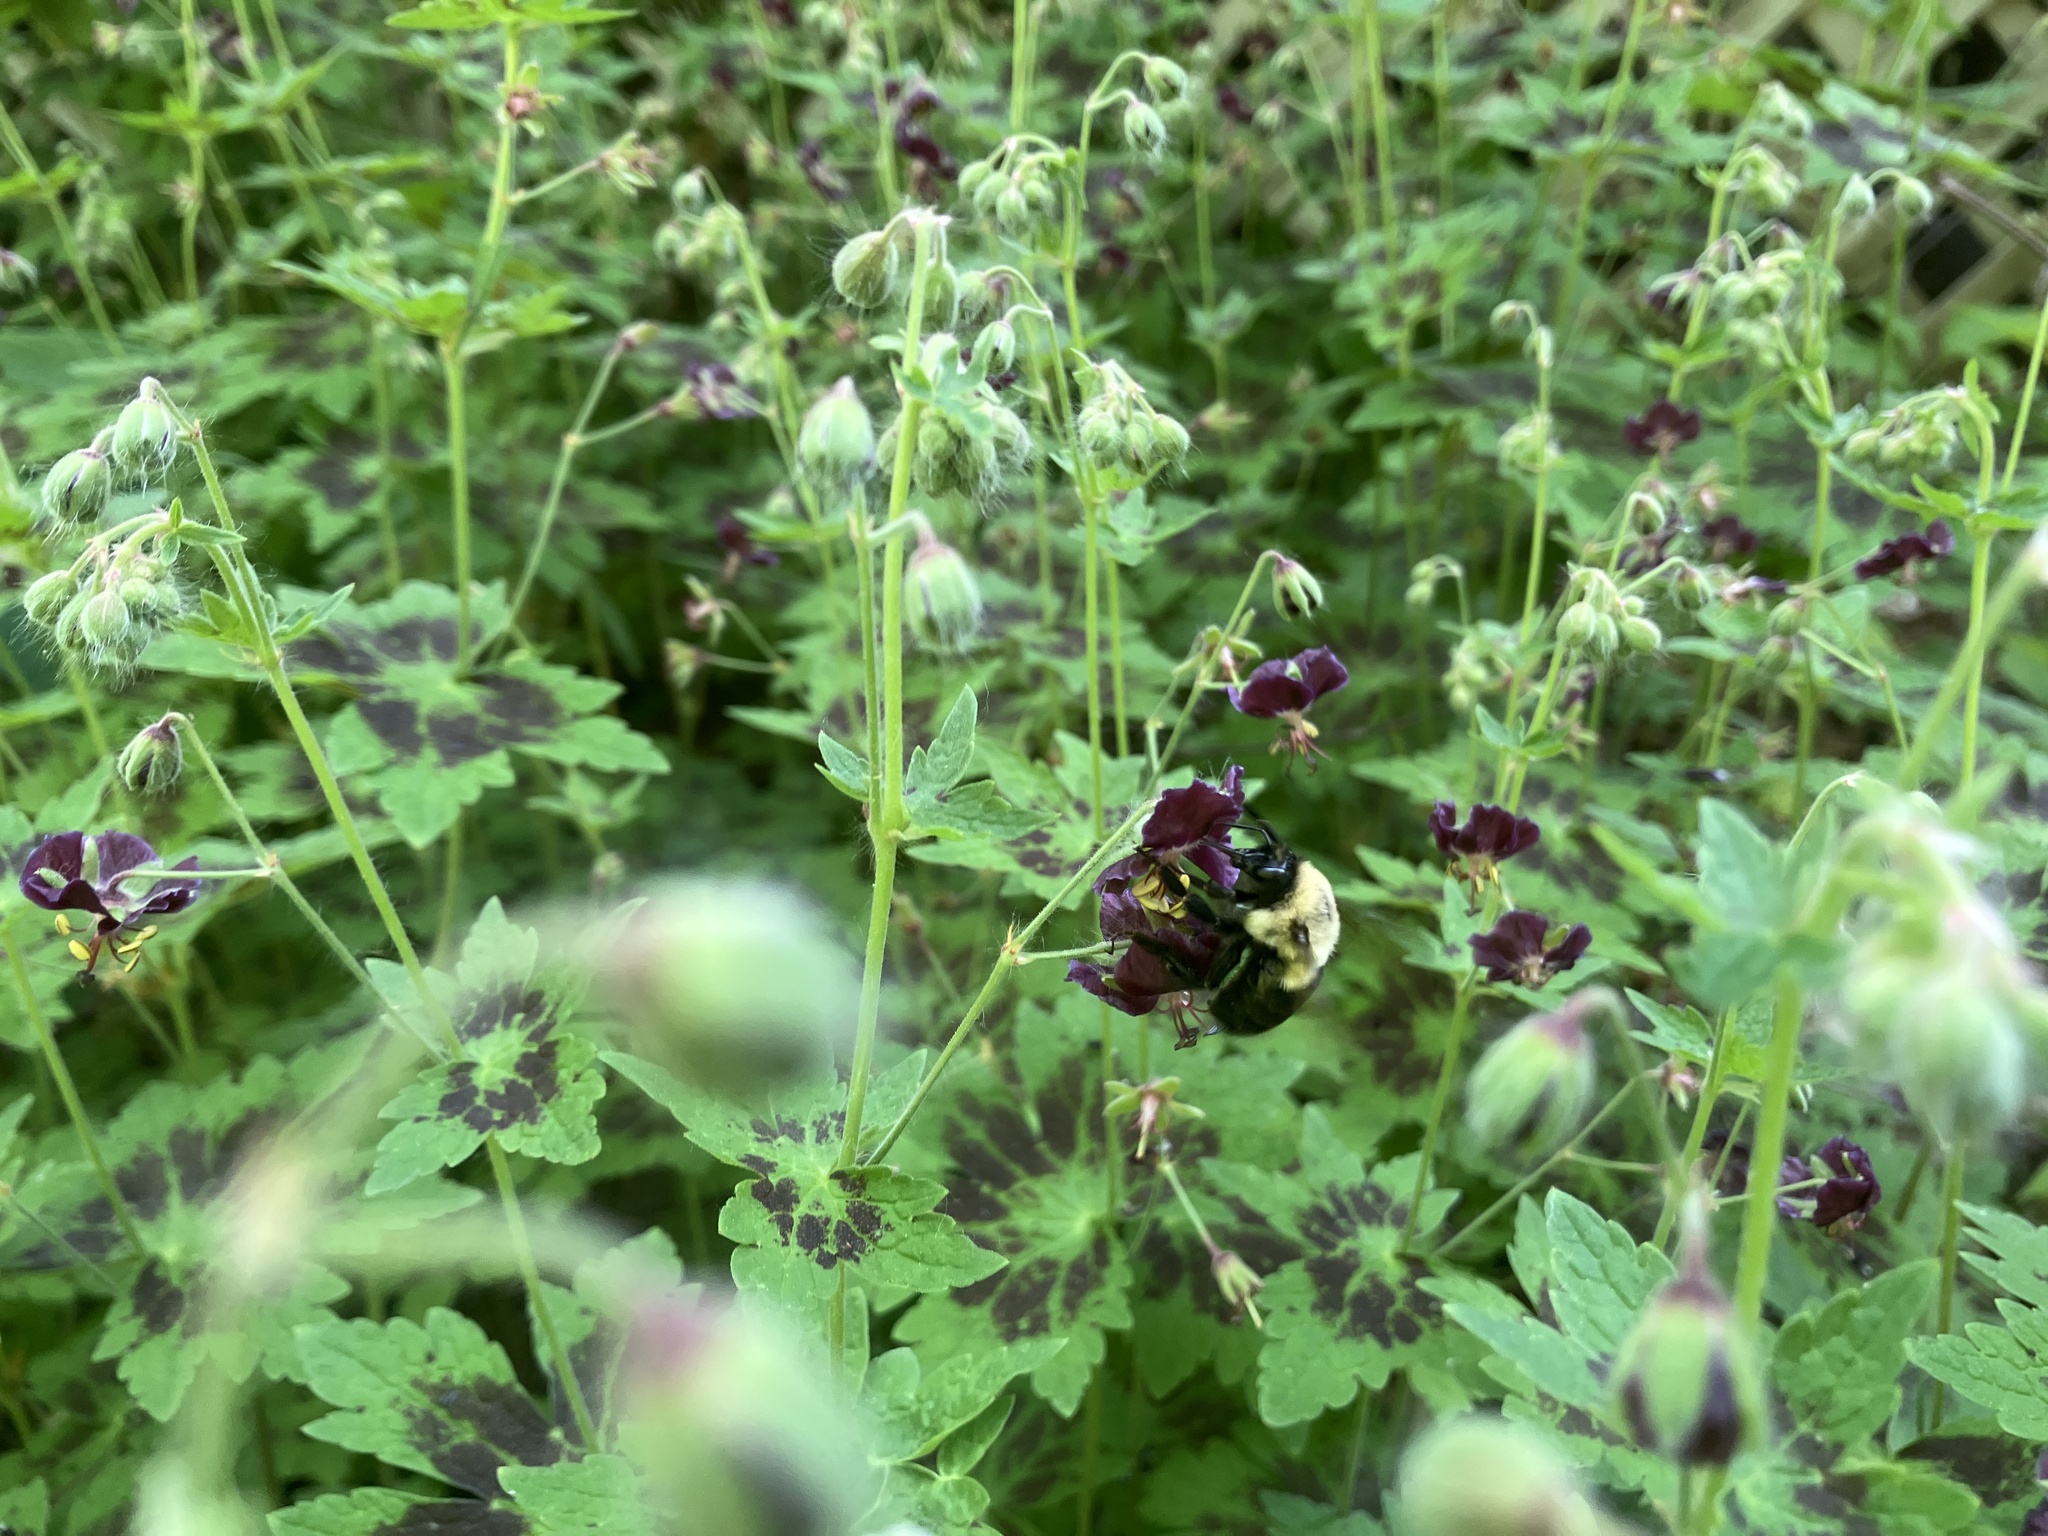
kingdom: Animalia
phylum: Arthropoda
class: Insecta
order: Hymenoptera
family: Apidae
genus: Bombus
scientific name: Bombus impatiens
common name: Common eastern bumble bee
